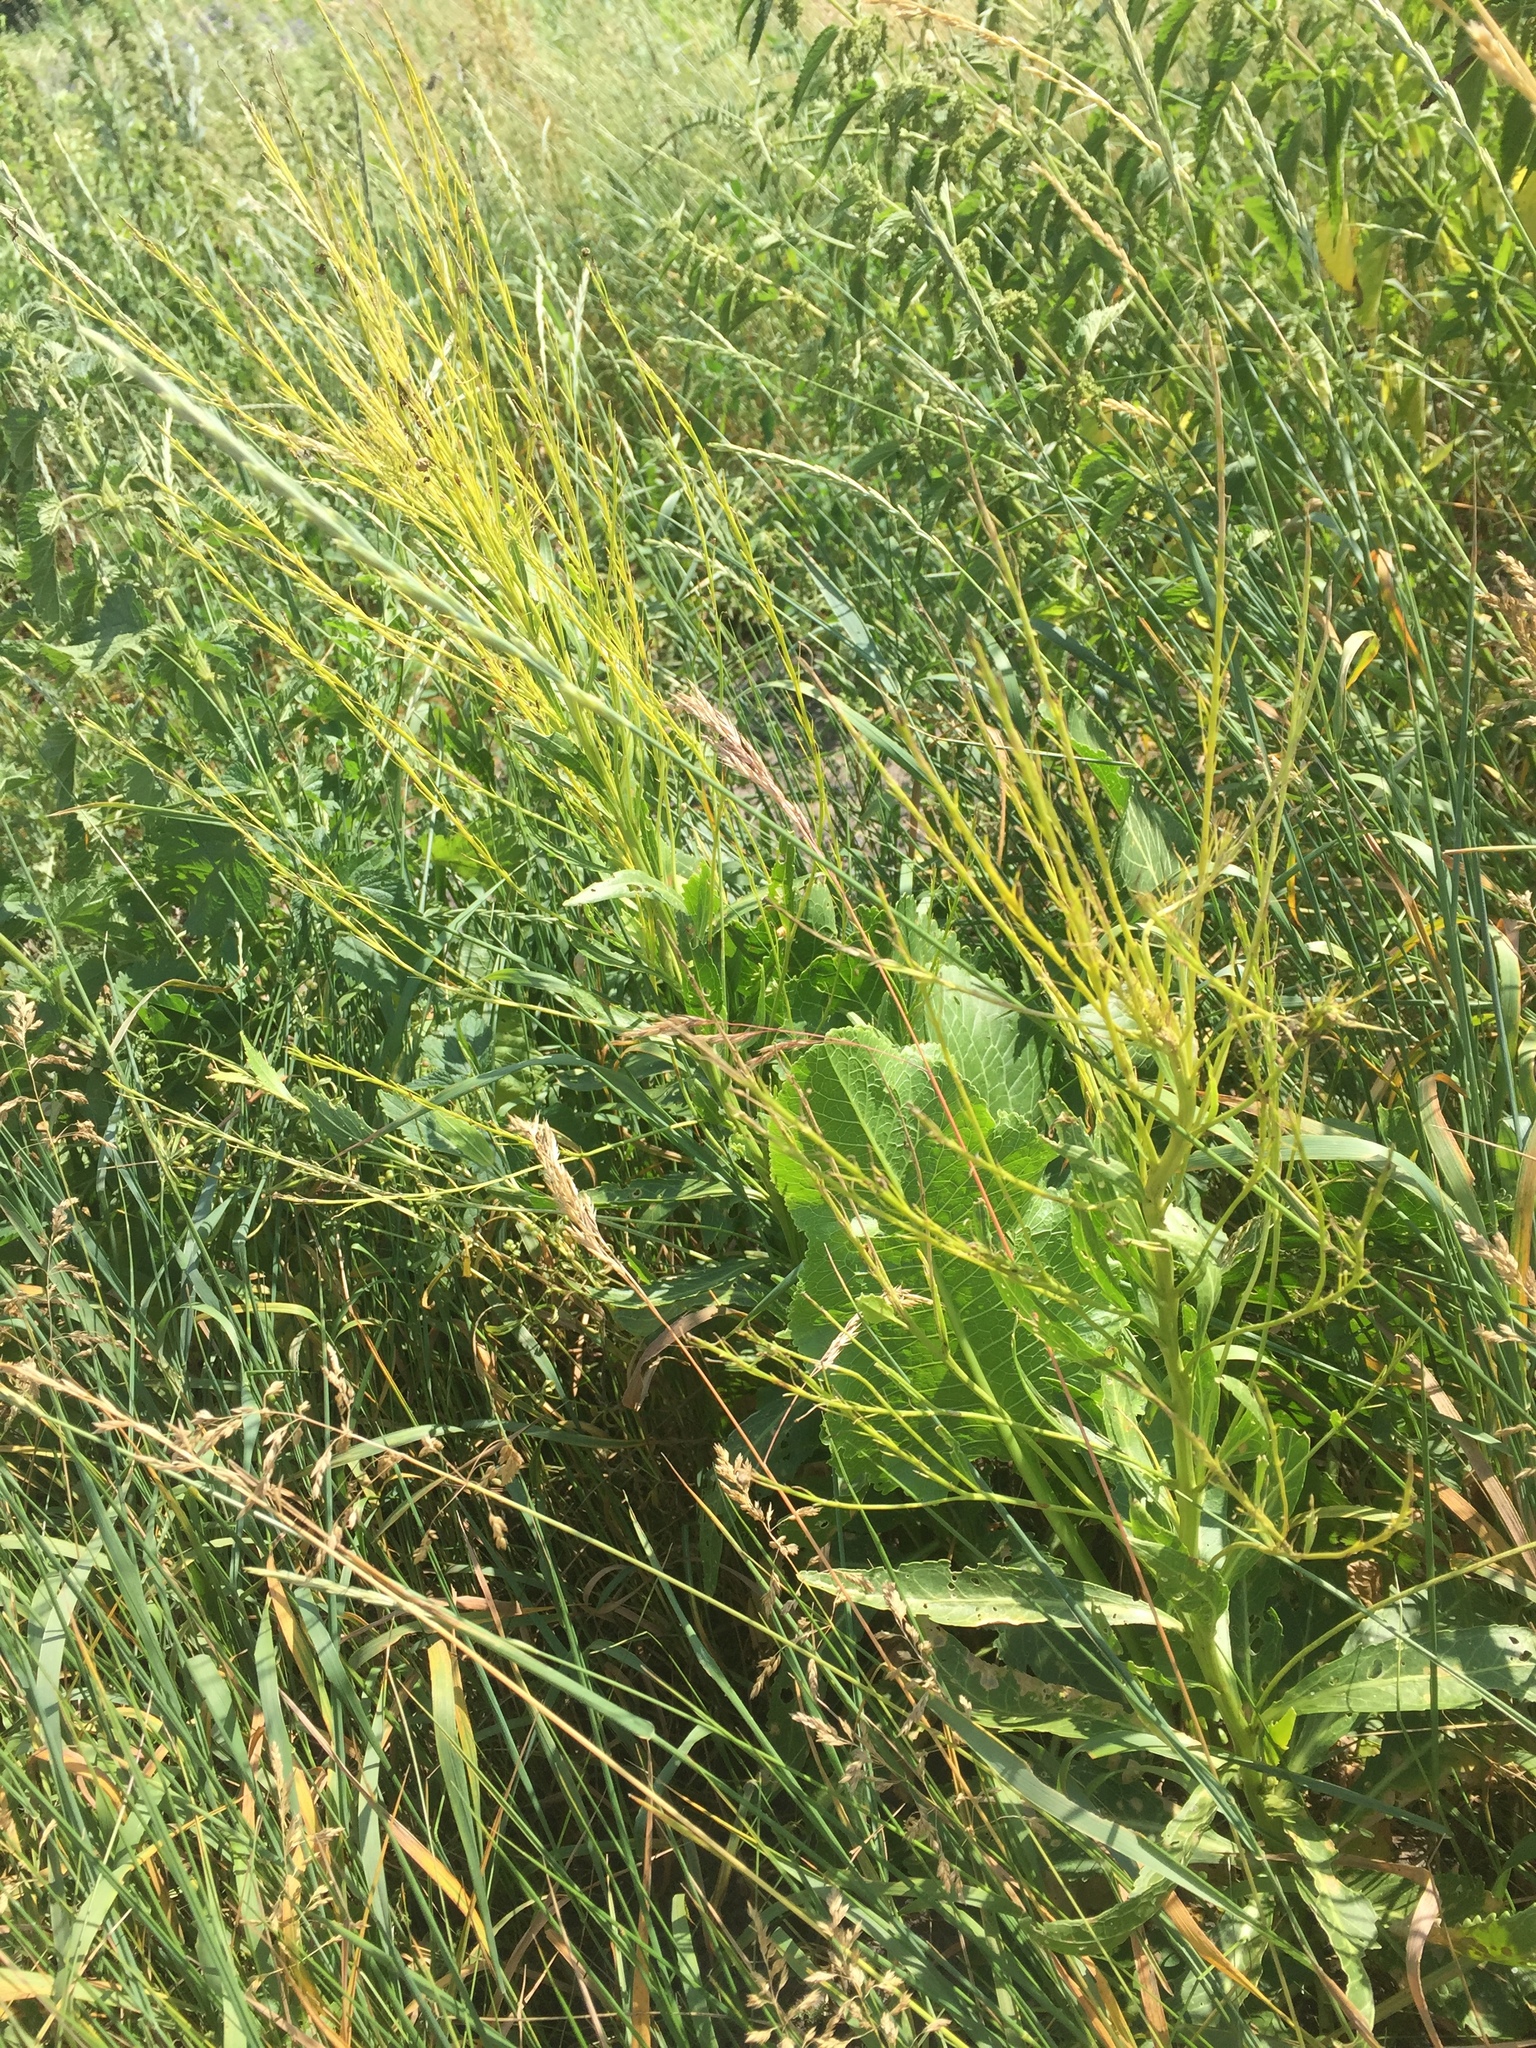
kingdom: Plantae
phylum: Tracheophyta
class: Magnoliopsida
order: Brassicales
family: Brassicaceae
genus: Armoracia
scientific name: Armoracia rusticana
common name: Horseradish
